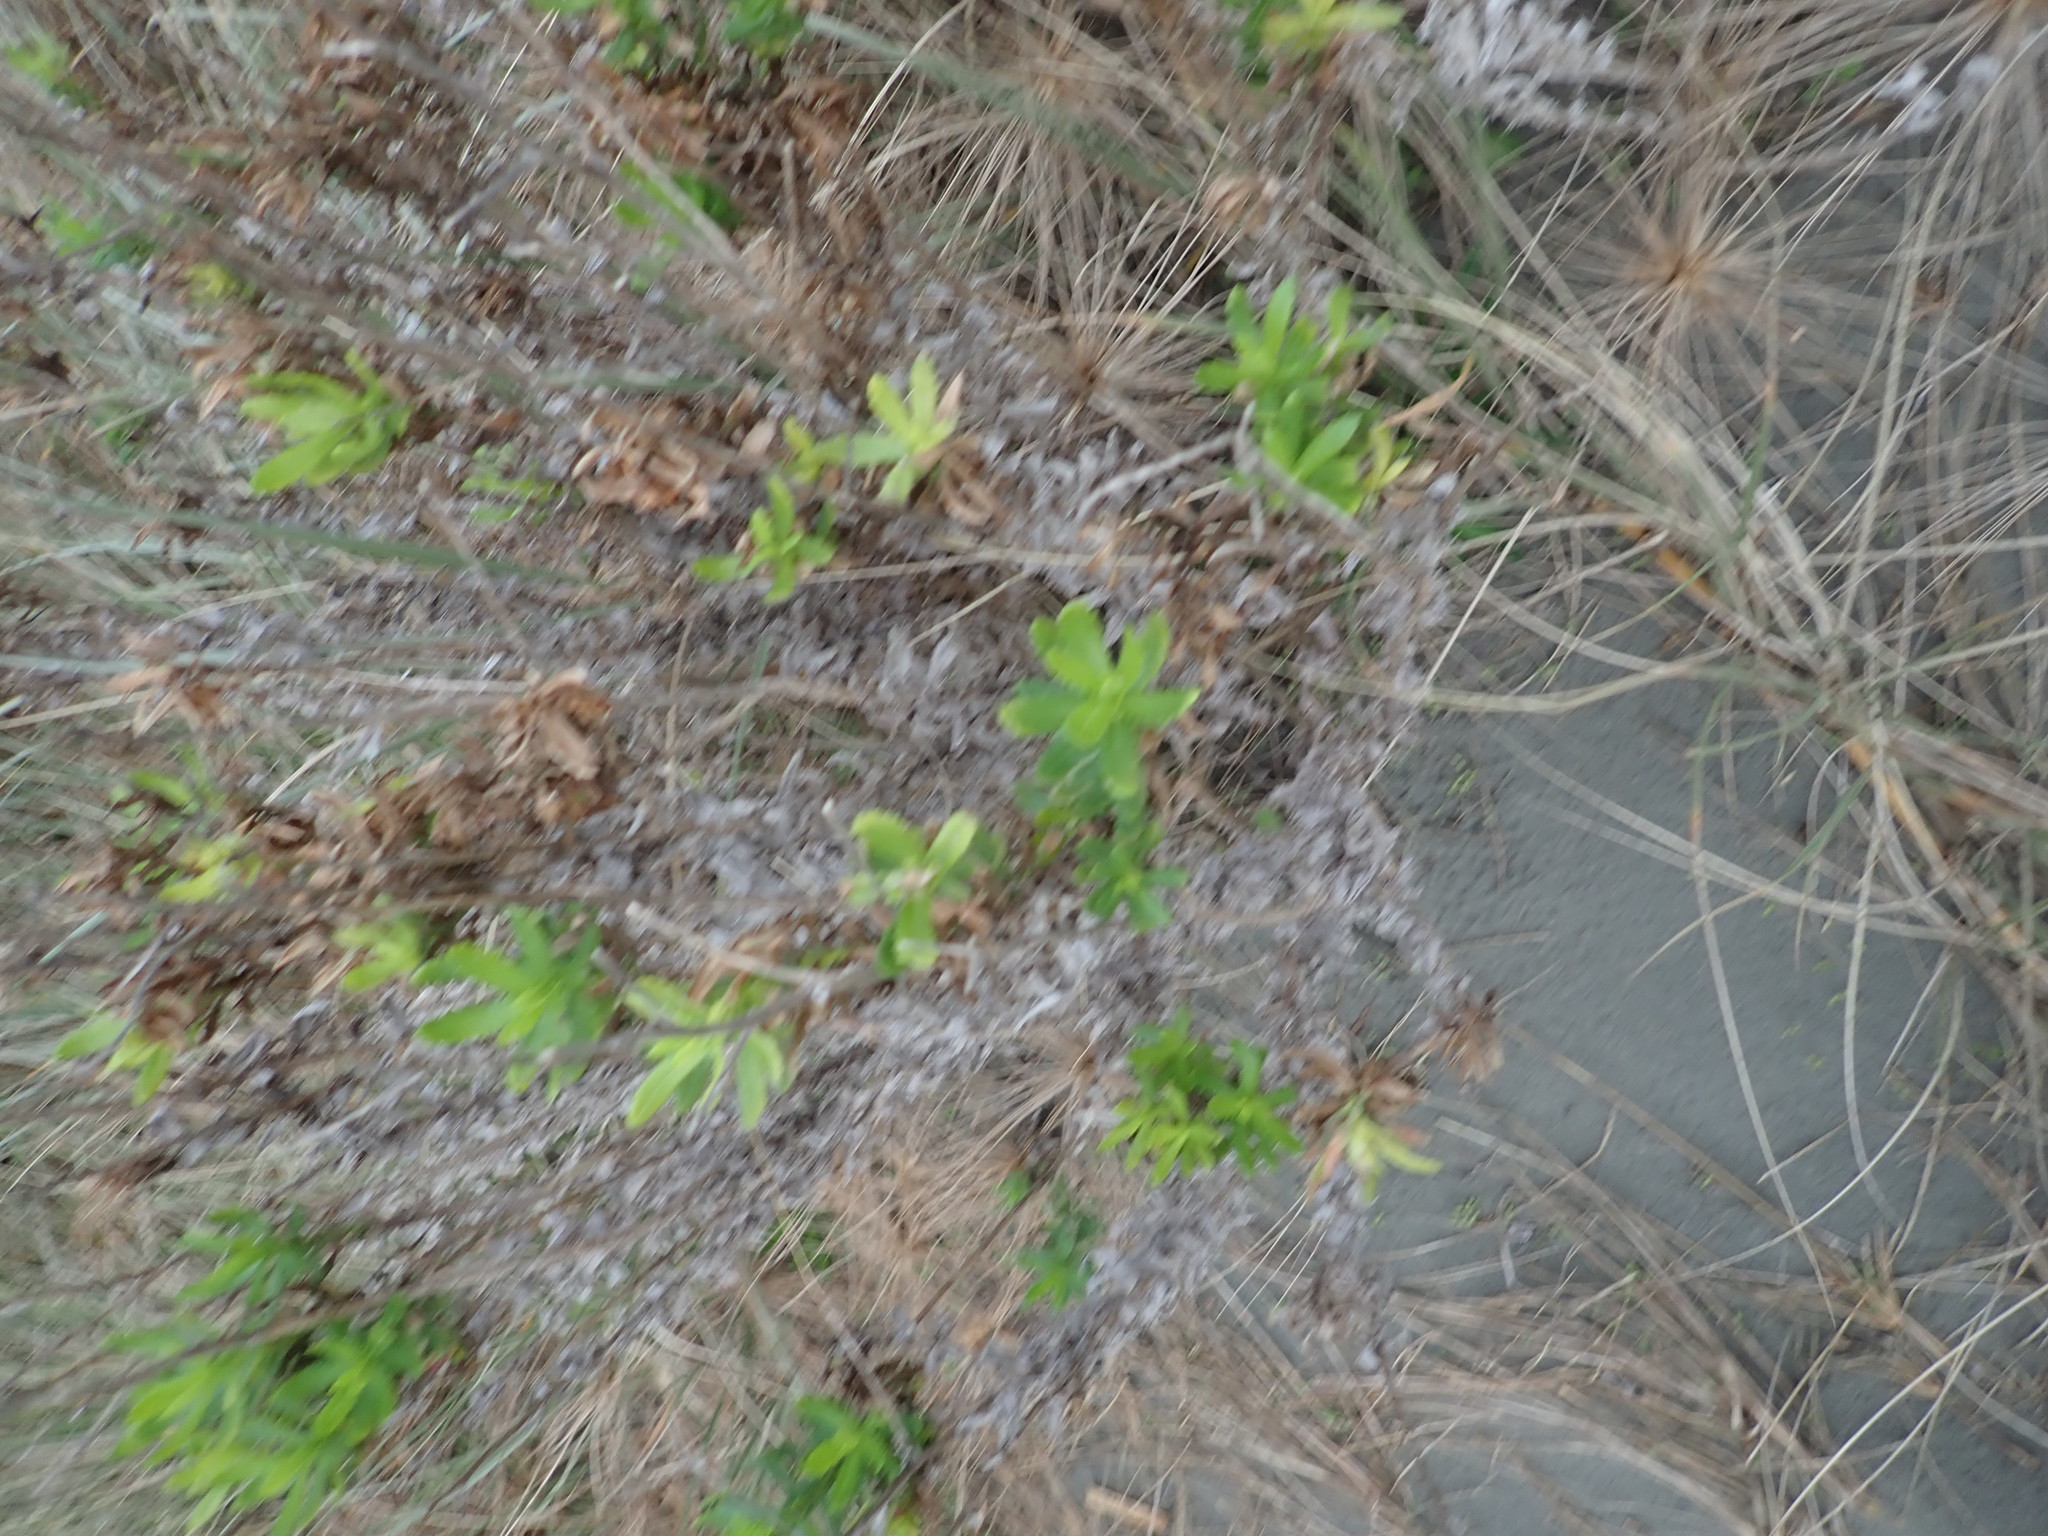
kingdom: Plantae
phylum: Tracheophyta
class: Magnoliopsida
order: Asterales
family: Asteraceae
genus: Senecio
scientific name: Senecio glastifolius
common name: Woad-leaved ragwort
